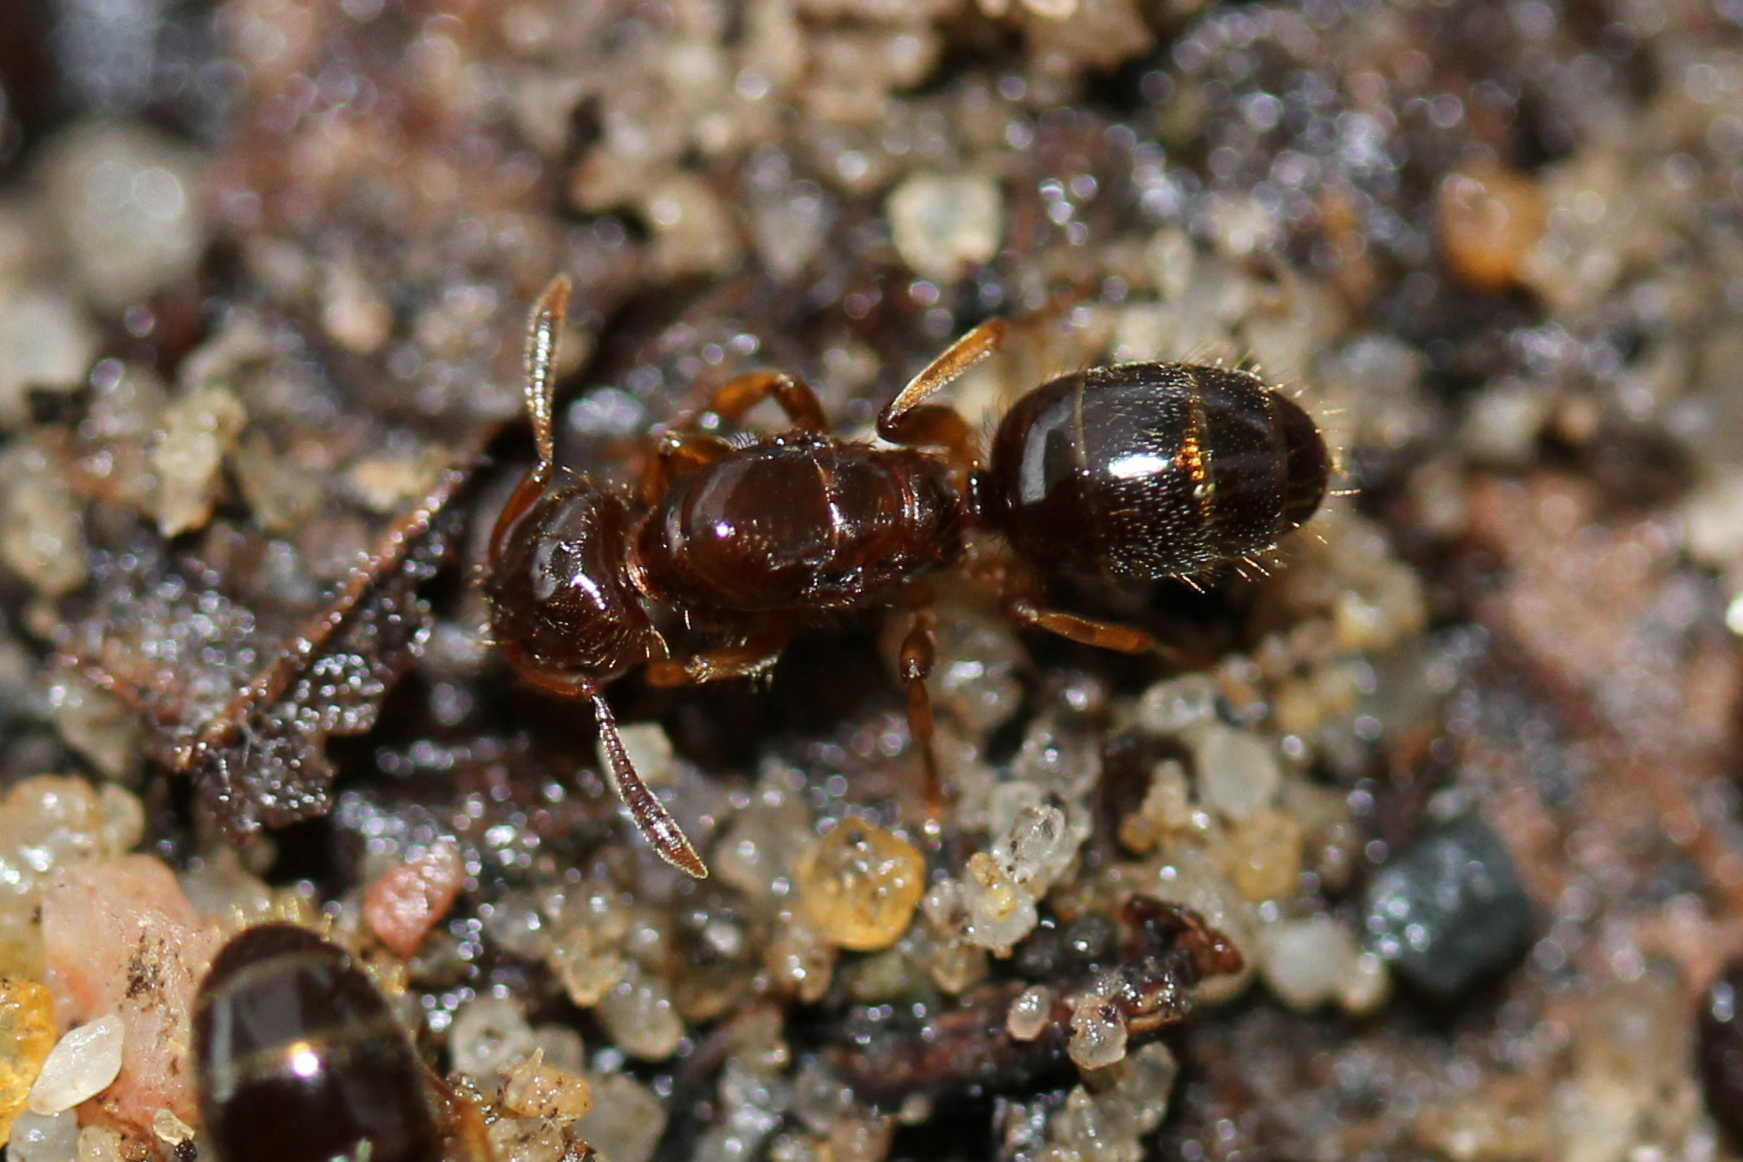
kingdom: Animalia
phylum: Arthropoda
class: Insecta
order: Hymenoptera
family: Formicidae
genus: Lasius
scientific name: Lasius claviger
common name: Common citronella ant
